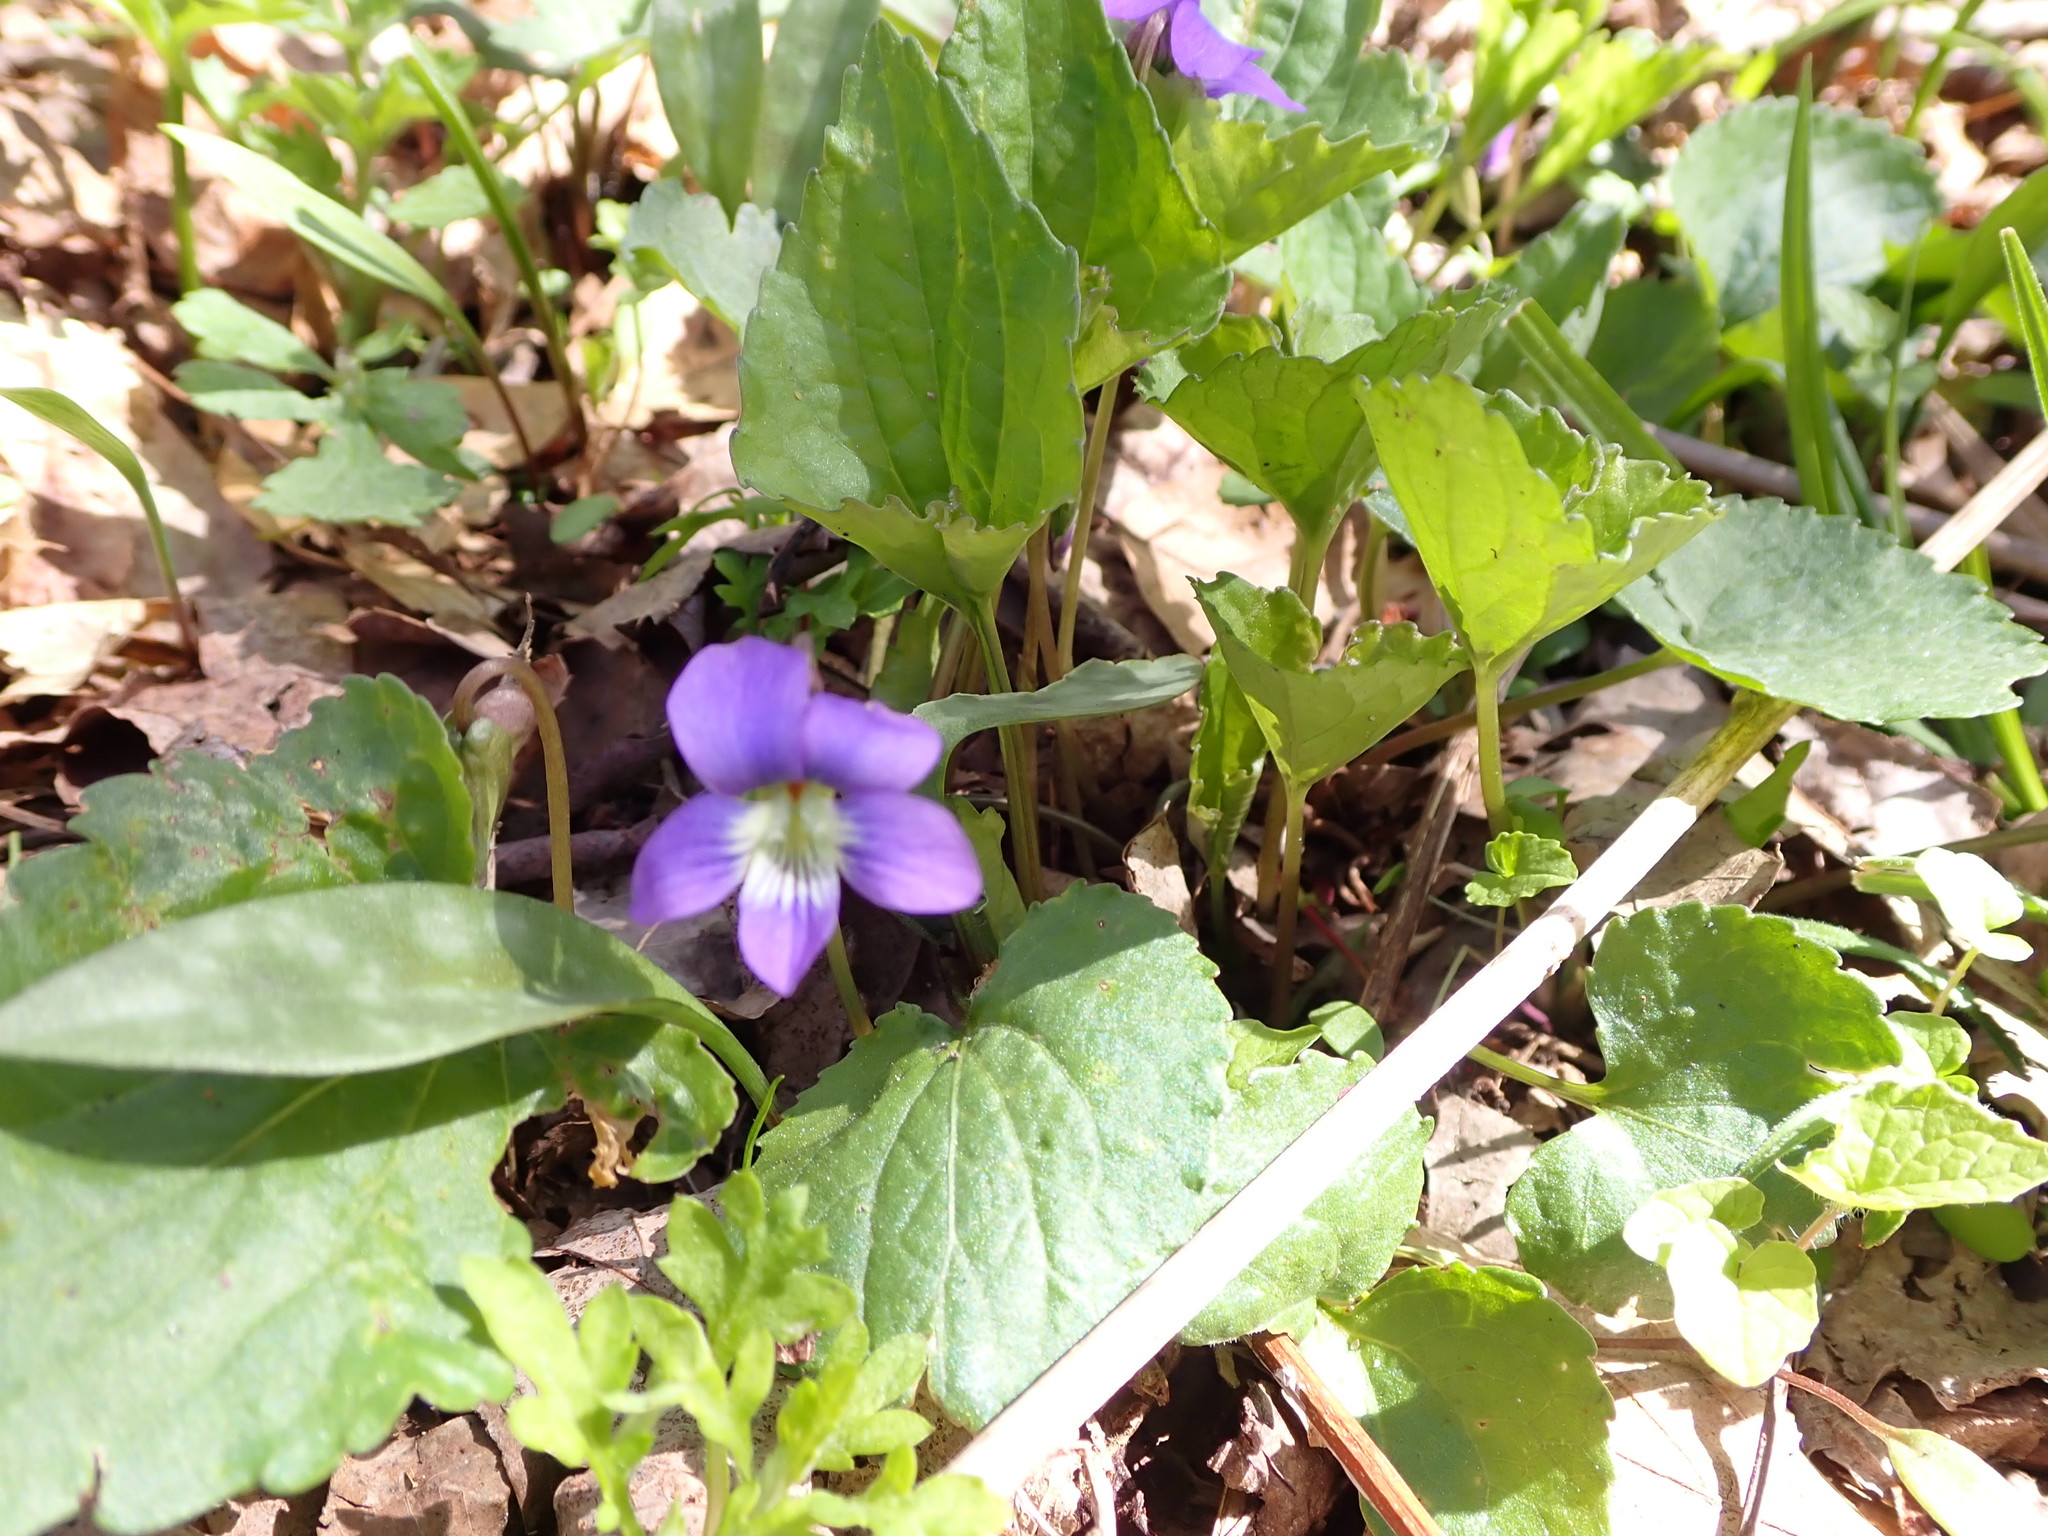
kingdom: Plantae
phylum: Tracheophyta
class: Magnoliopsida
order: Malpighiales
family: Violaceae
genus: Viola
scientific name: Viola sororia
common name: Dooryard violet
